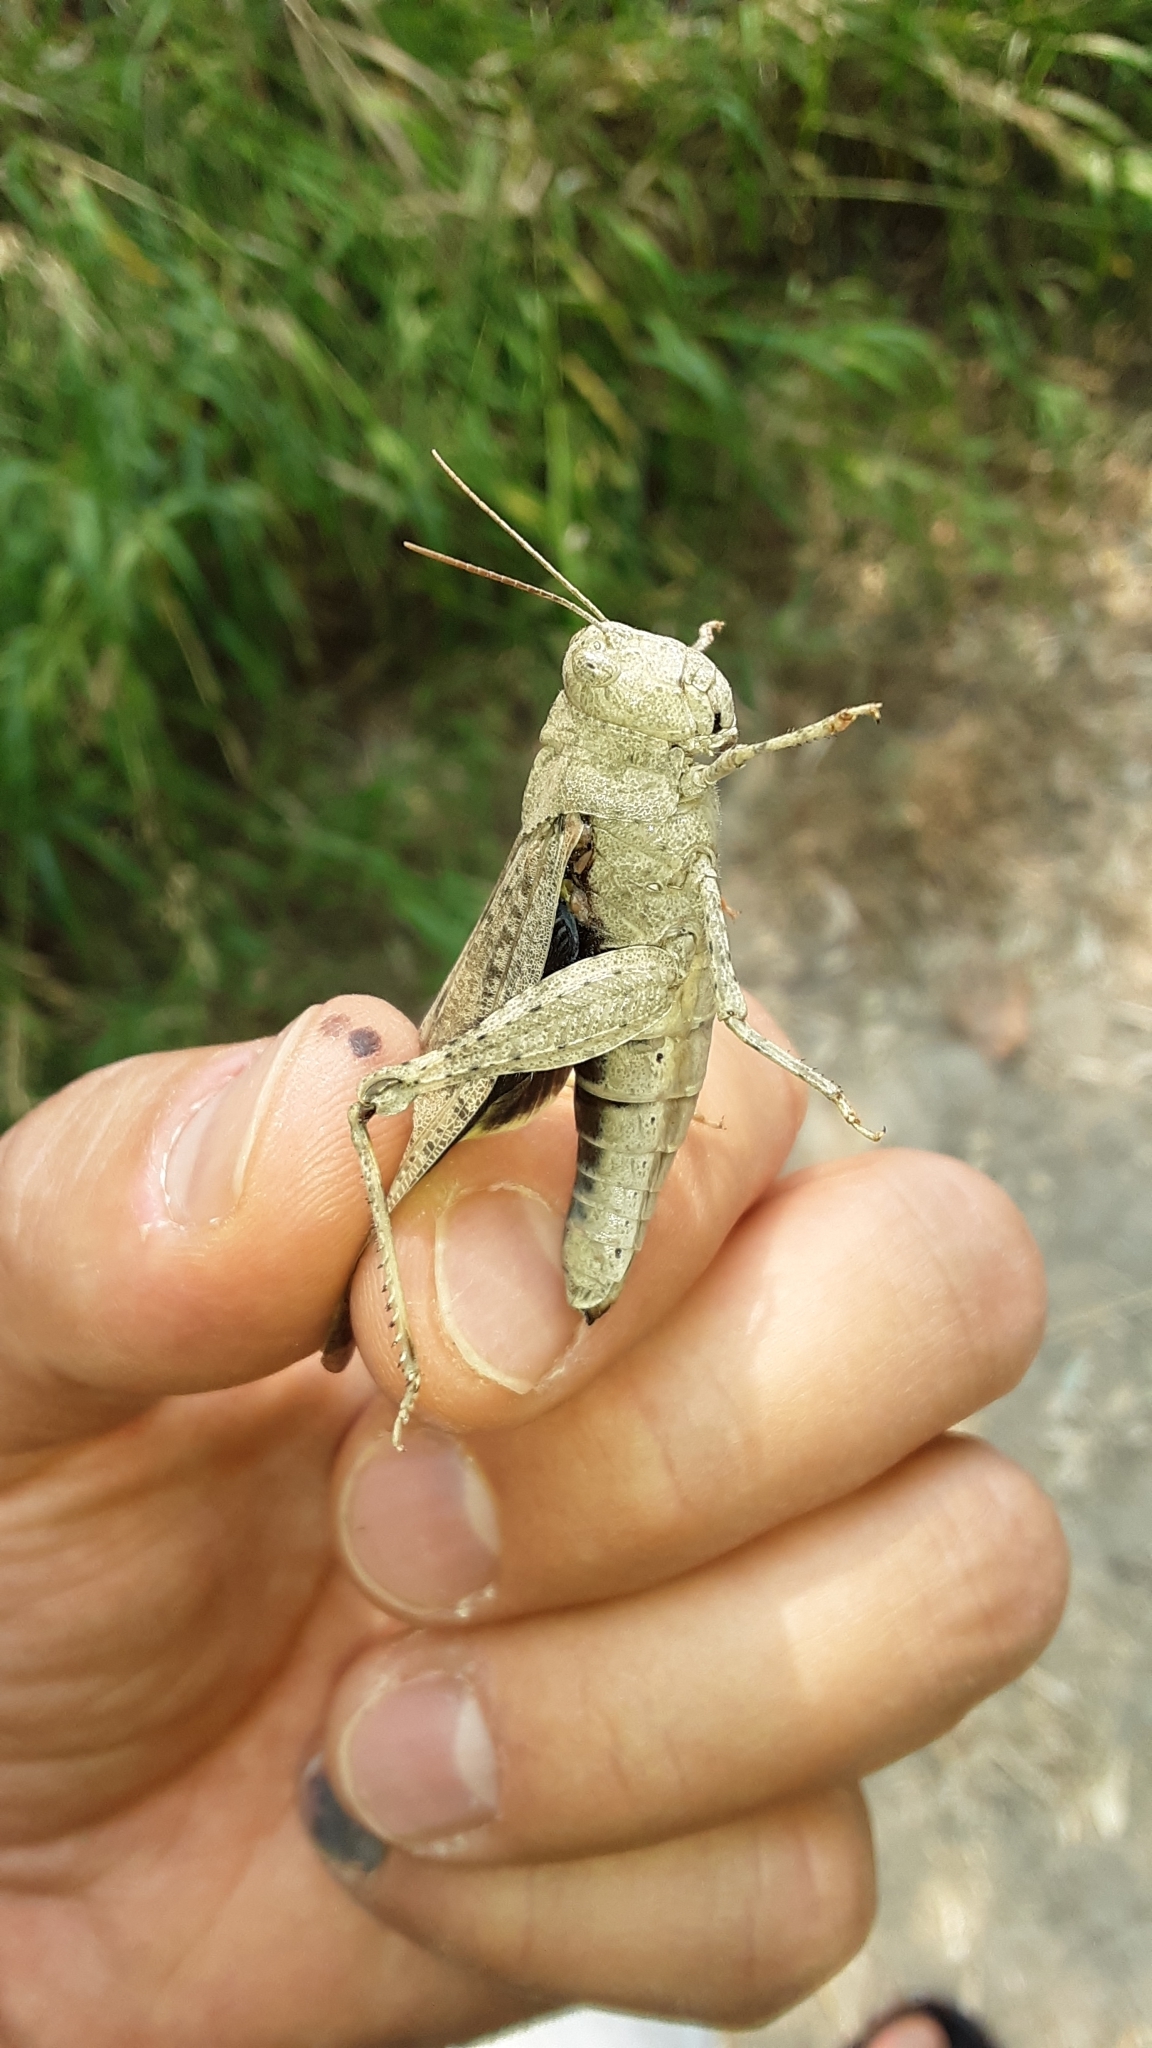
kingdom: Animalia
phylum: Arthropoda
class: Insecta
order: Orthoptera
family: Acrididae
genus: Dissosteira
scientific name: Dissosteira carolina
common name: Carolina grasshopper
